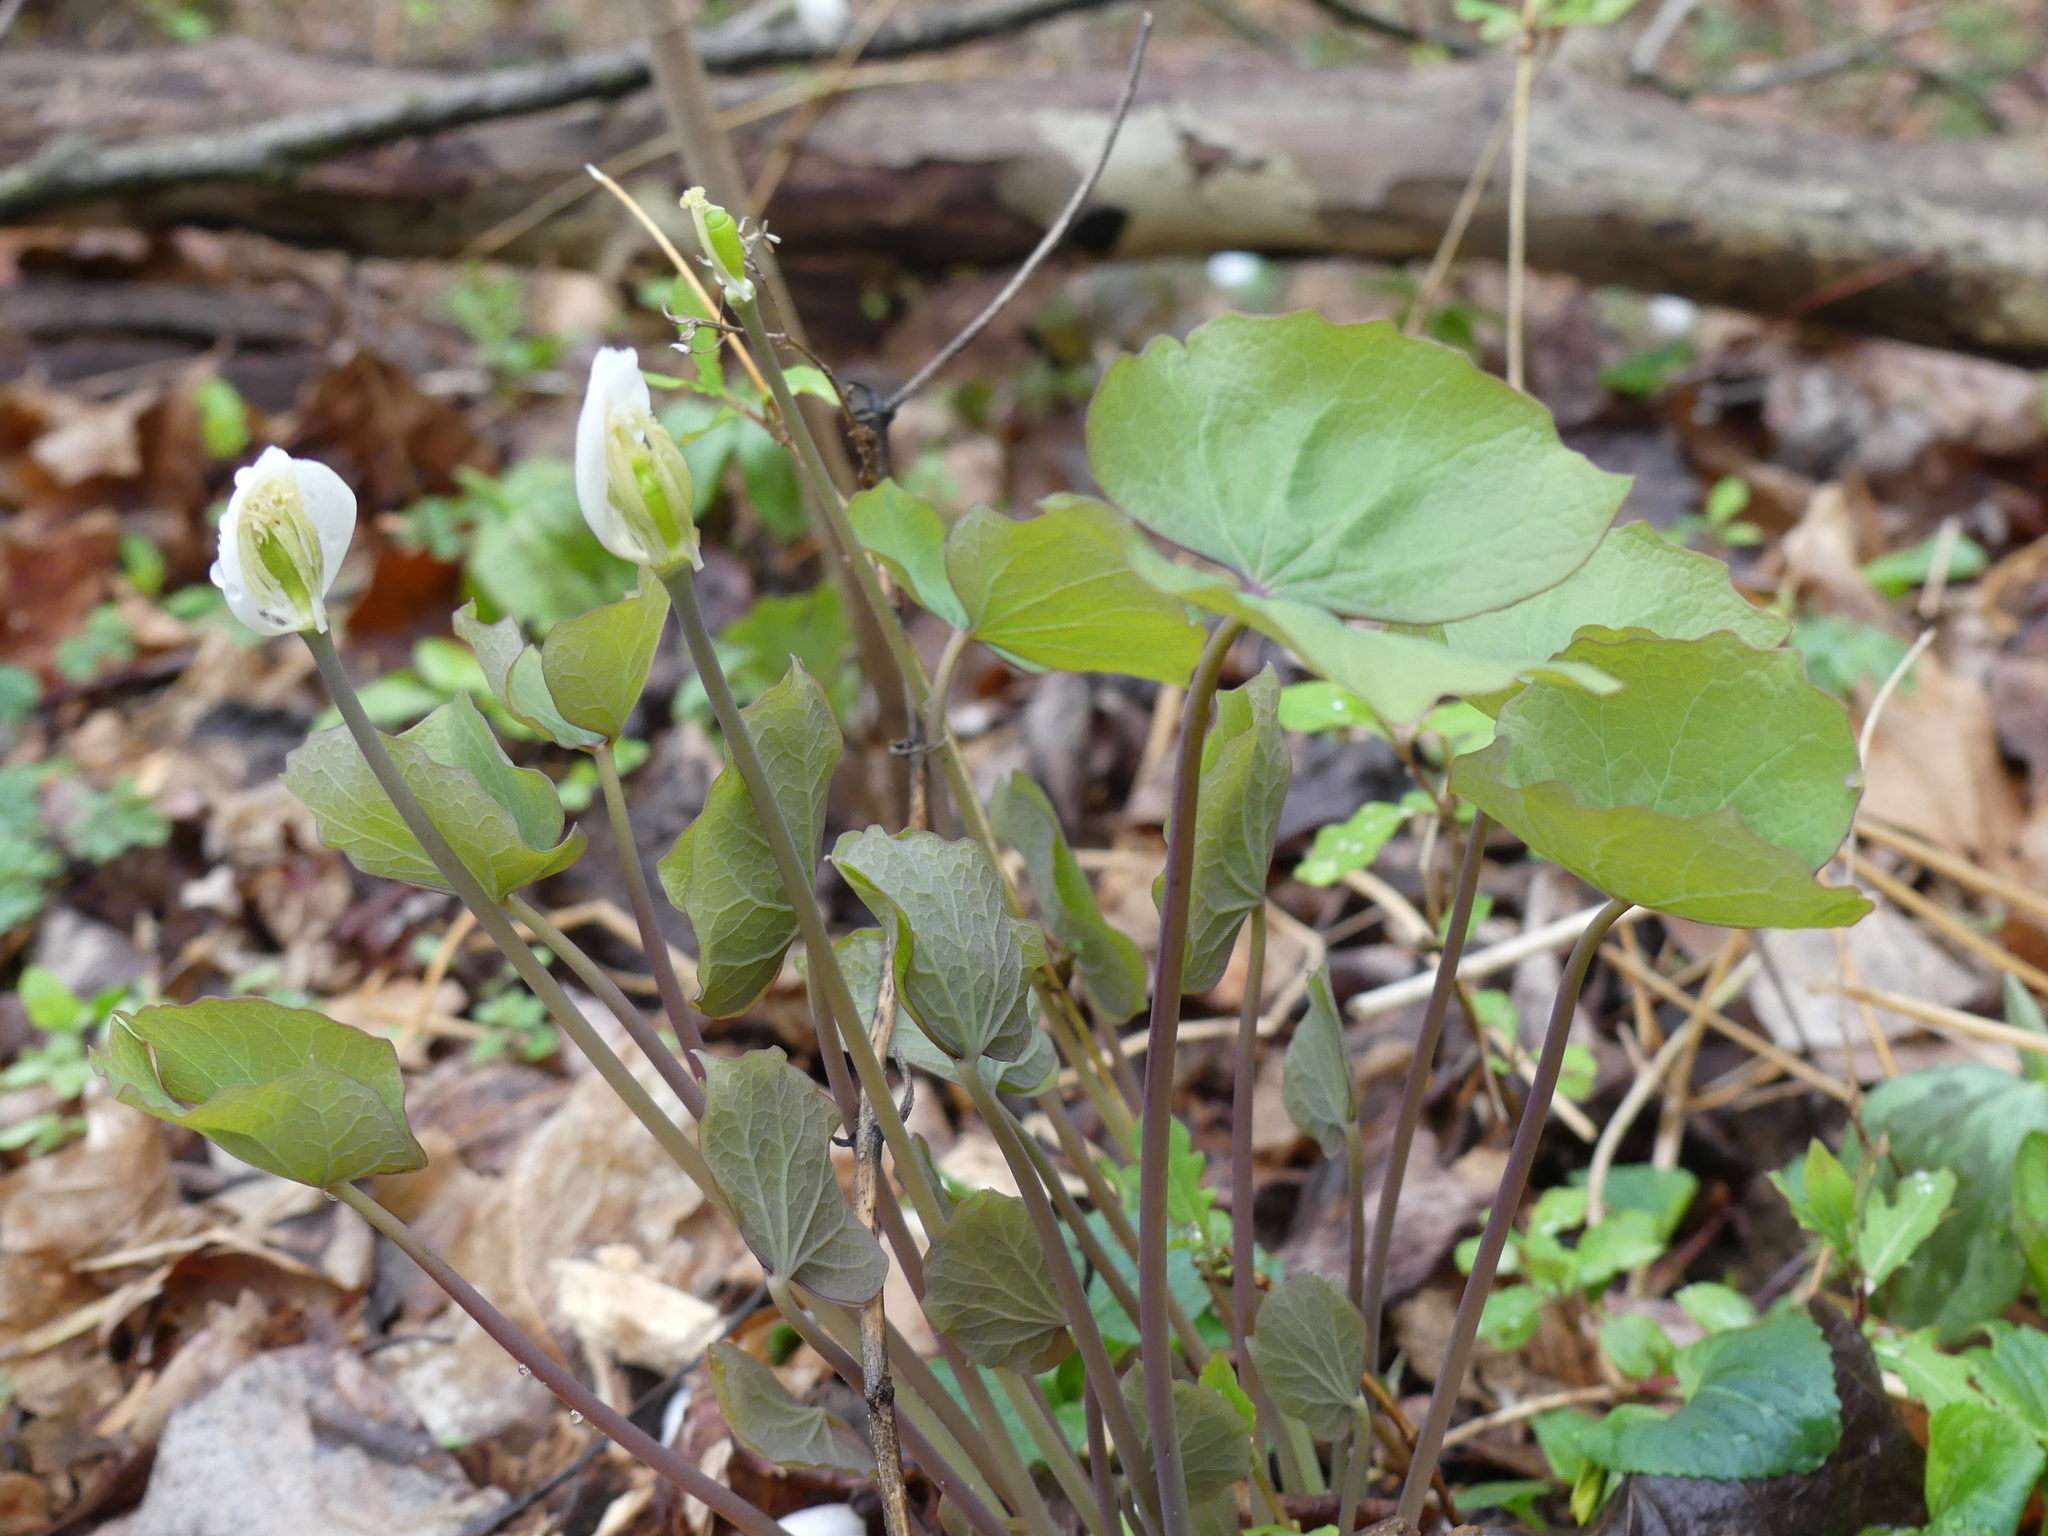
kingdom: Plantae
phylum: Tracheophyta
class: Magnoliopsida
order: Ranunculales
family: Berberidaceae
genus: Jeffersonia
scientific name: Jeffersonia diphylla
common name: Rheumatism-root
